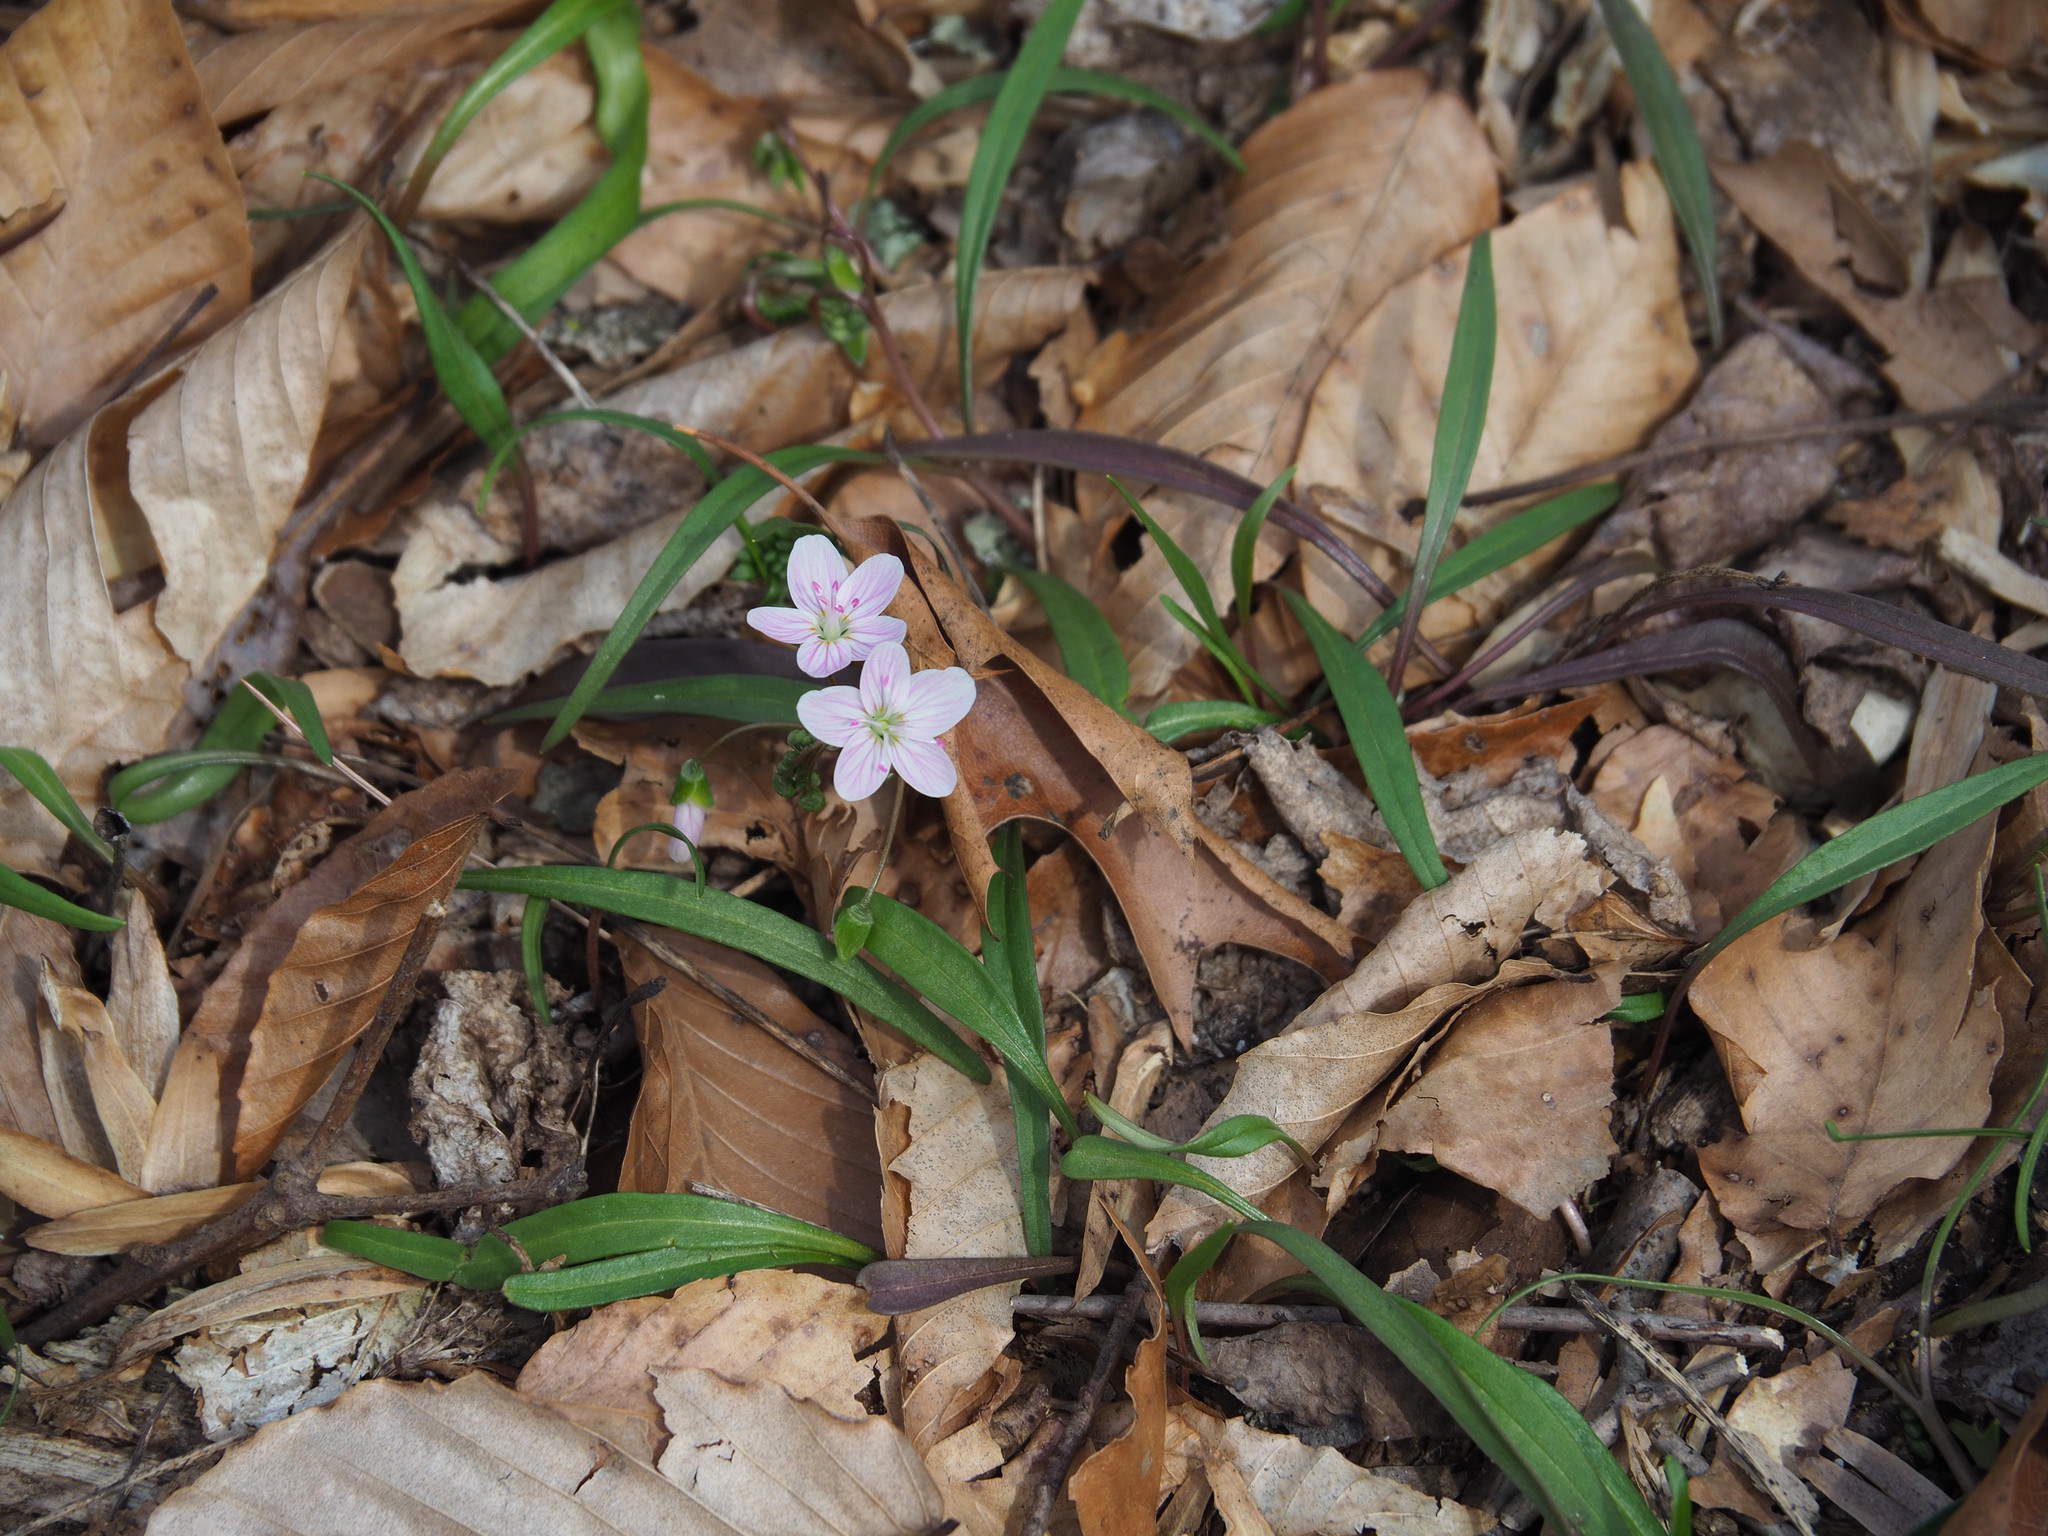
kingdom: Plantae
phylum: Tracheophyta
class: Magnoliopsida
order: Caryophyllales
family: Montiaceae
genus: Claytonia
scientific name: Claytonia virginica
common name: Virginia springbeauty
